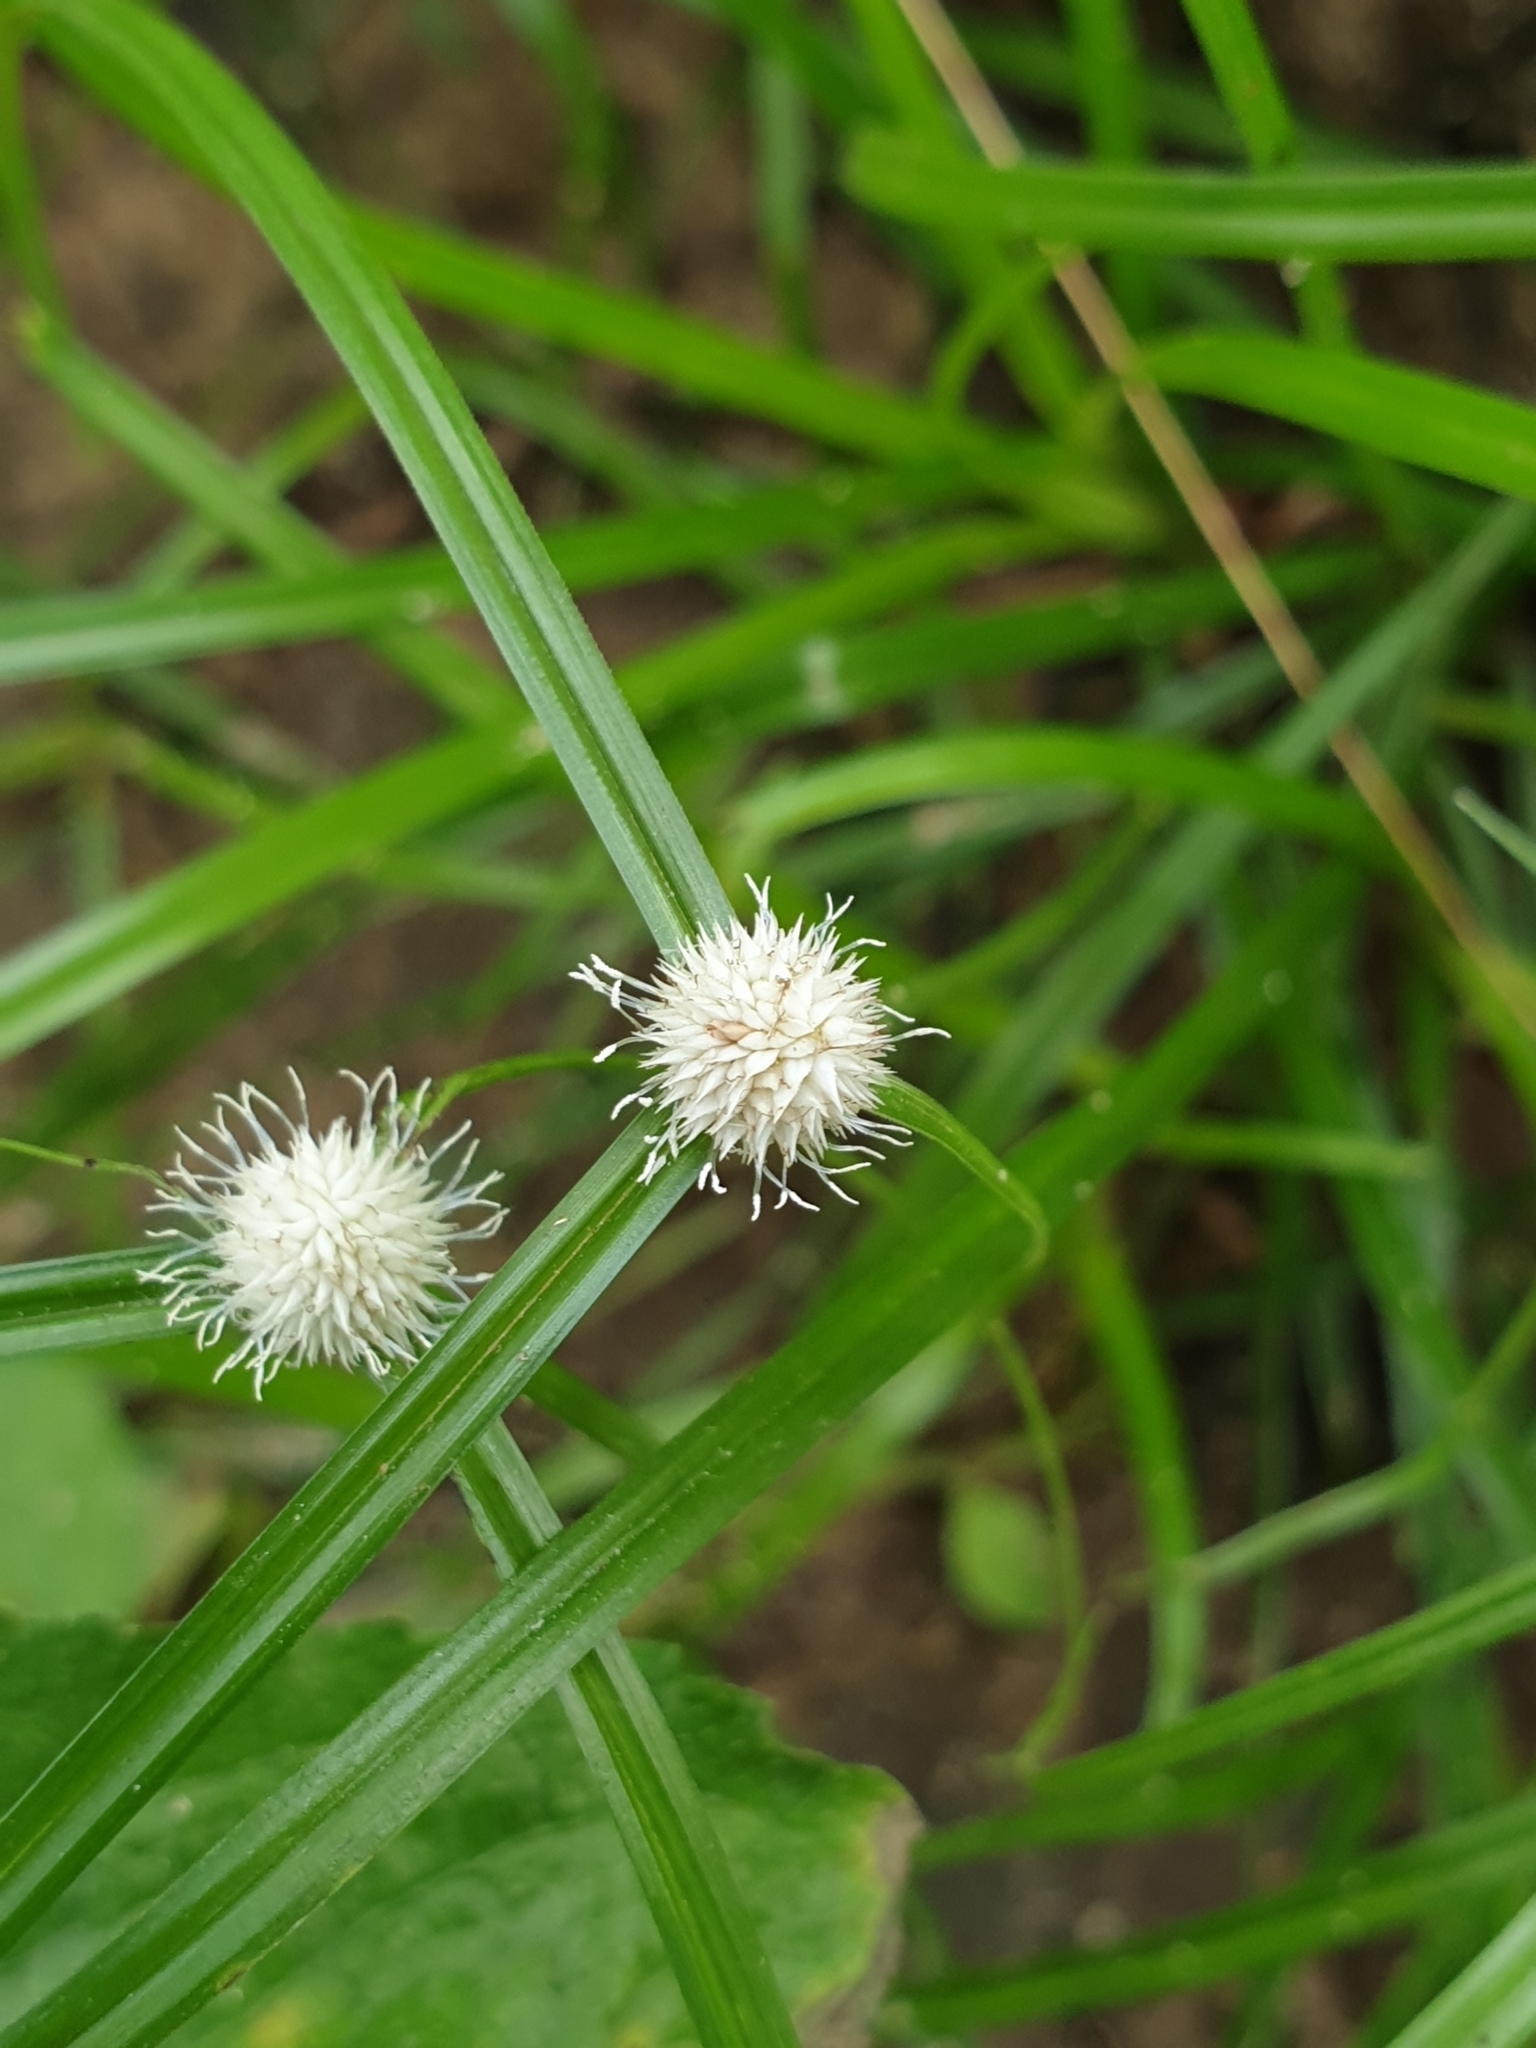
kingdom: Plantae
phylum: Tracheophyta
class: Liliopsida
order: Poales
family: Cyperaceae
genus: Cyperus
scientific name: Cyperus mindorensis
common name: Flatsedge
